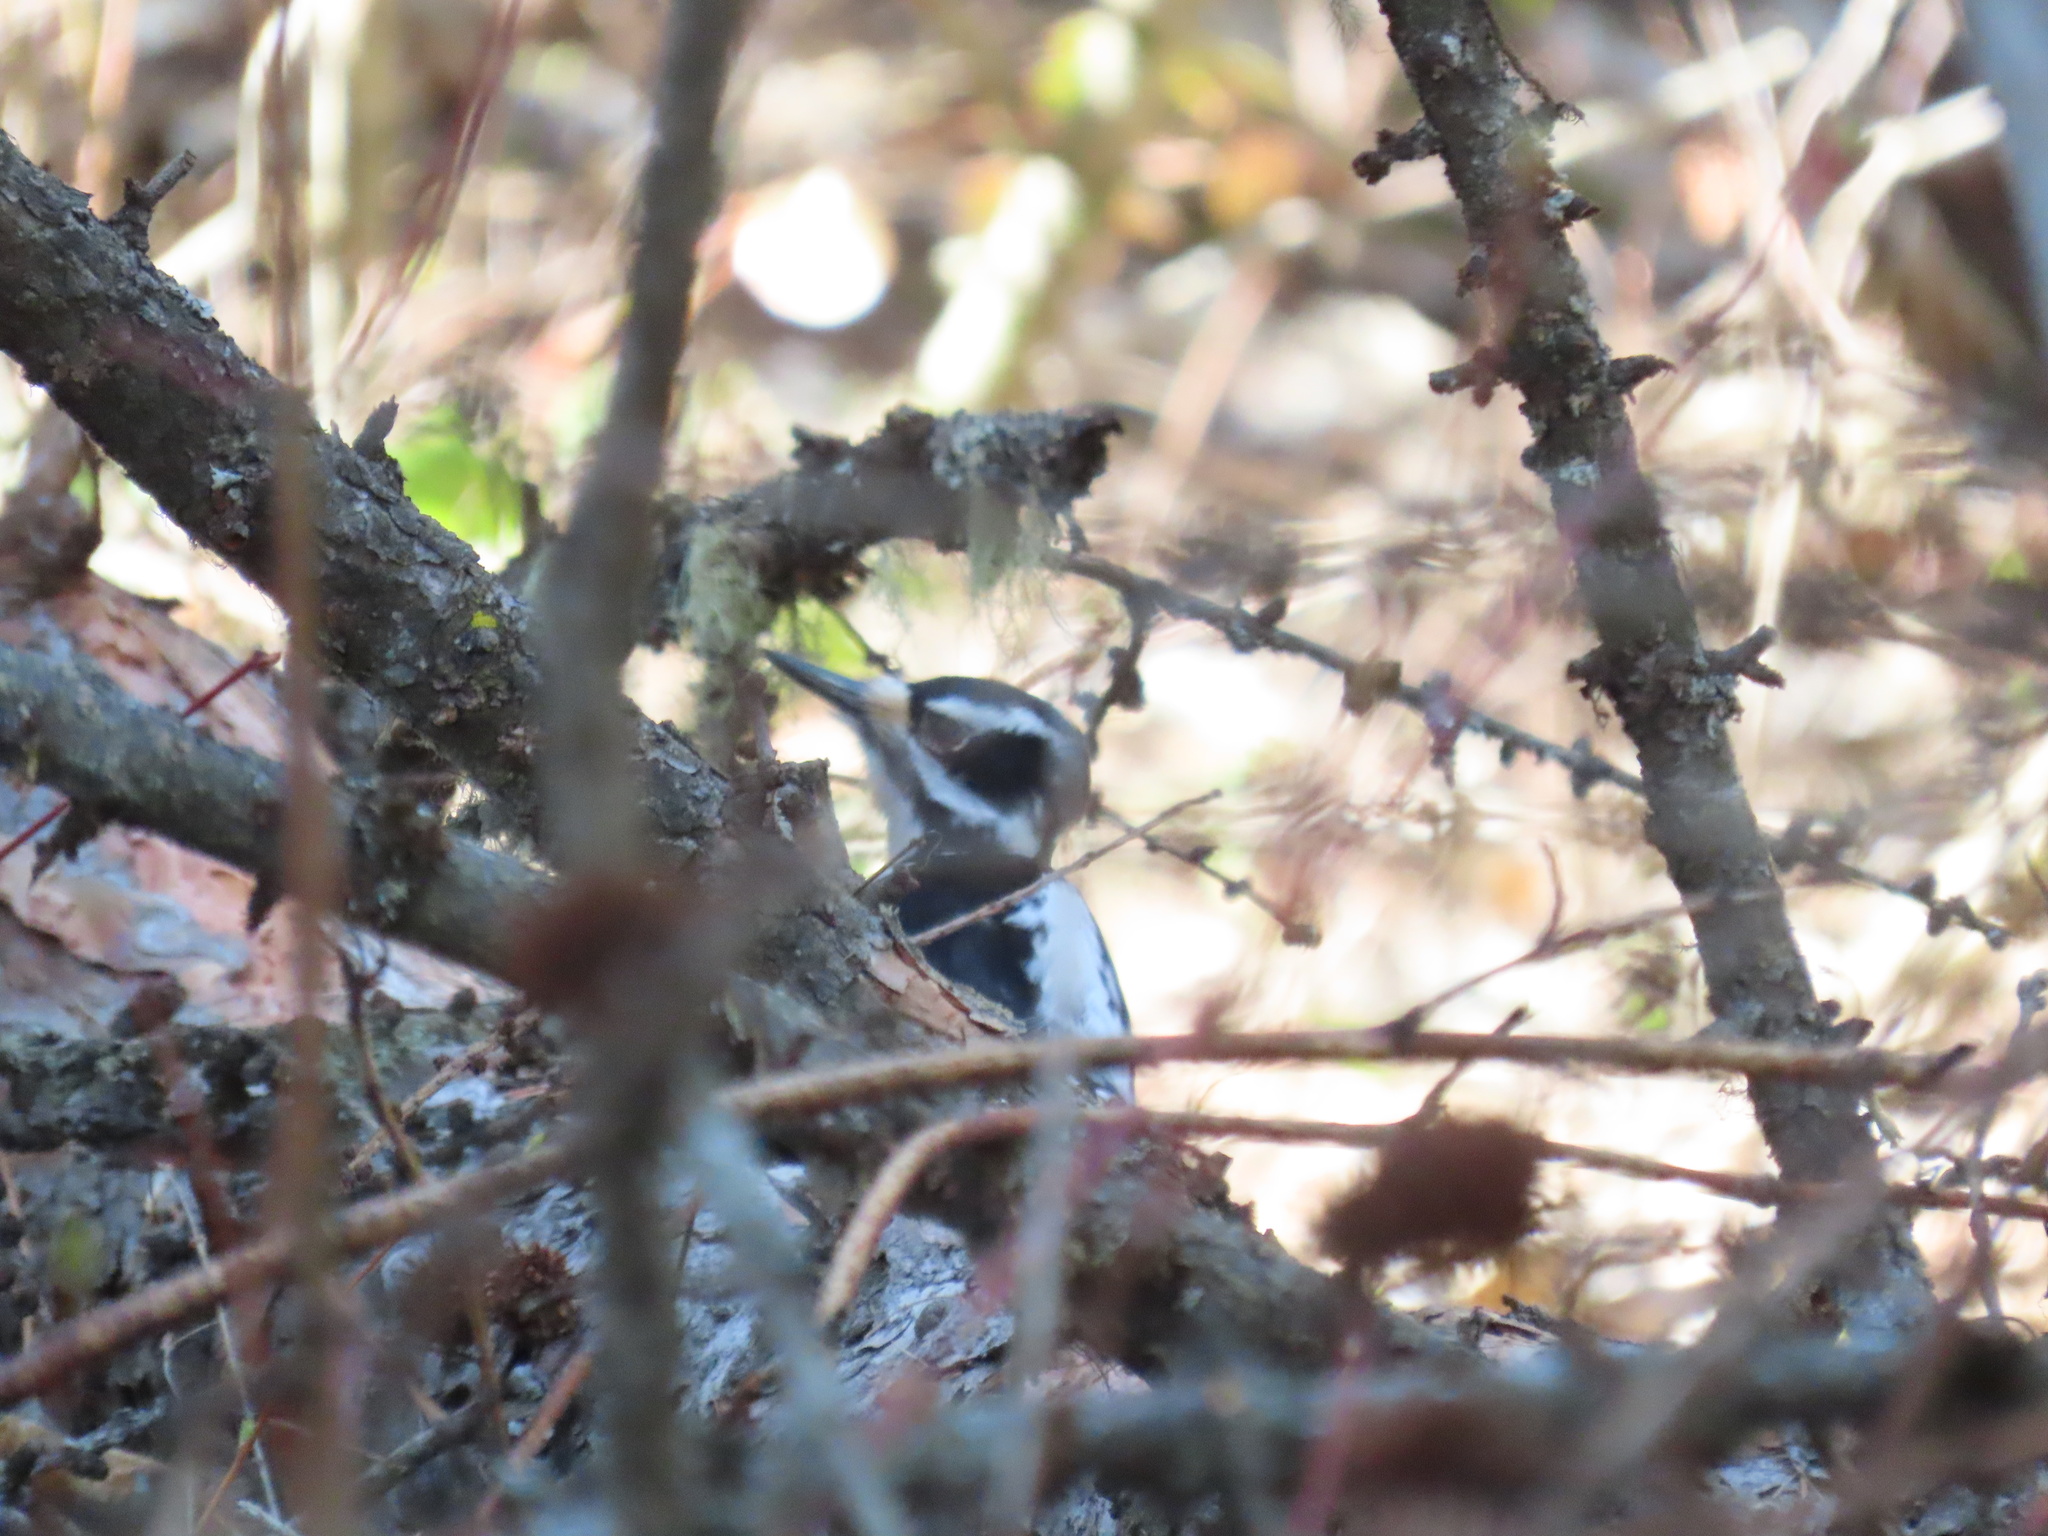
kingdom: Animalia
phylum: Chordata
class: Aves
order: Piciformes
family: Picidae
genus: Leuconotopicus
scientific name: Leuconotopicus villosus
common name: Hairy woodpecker
